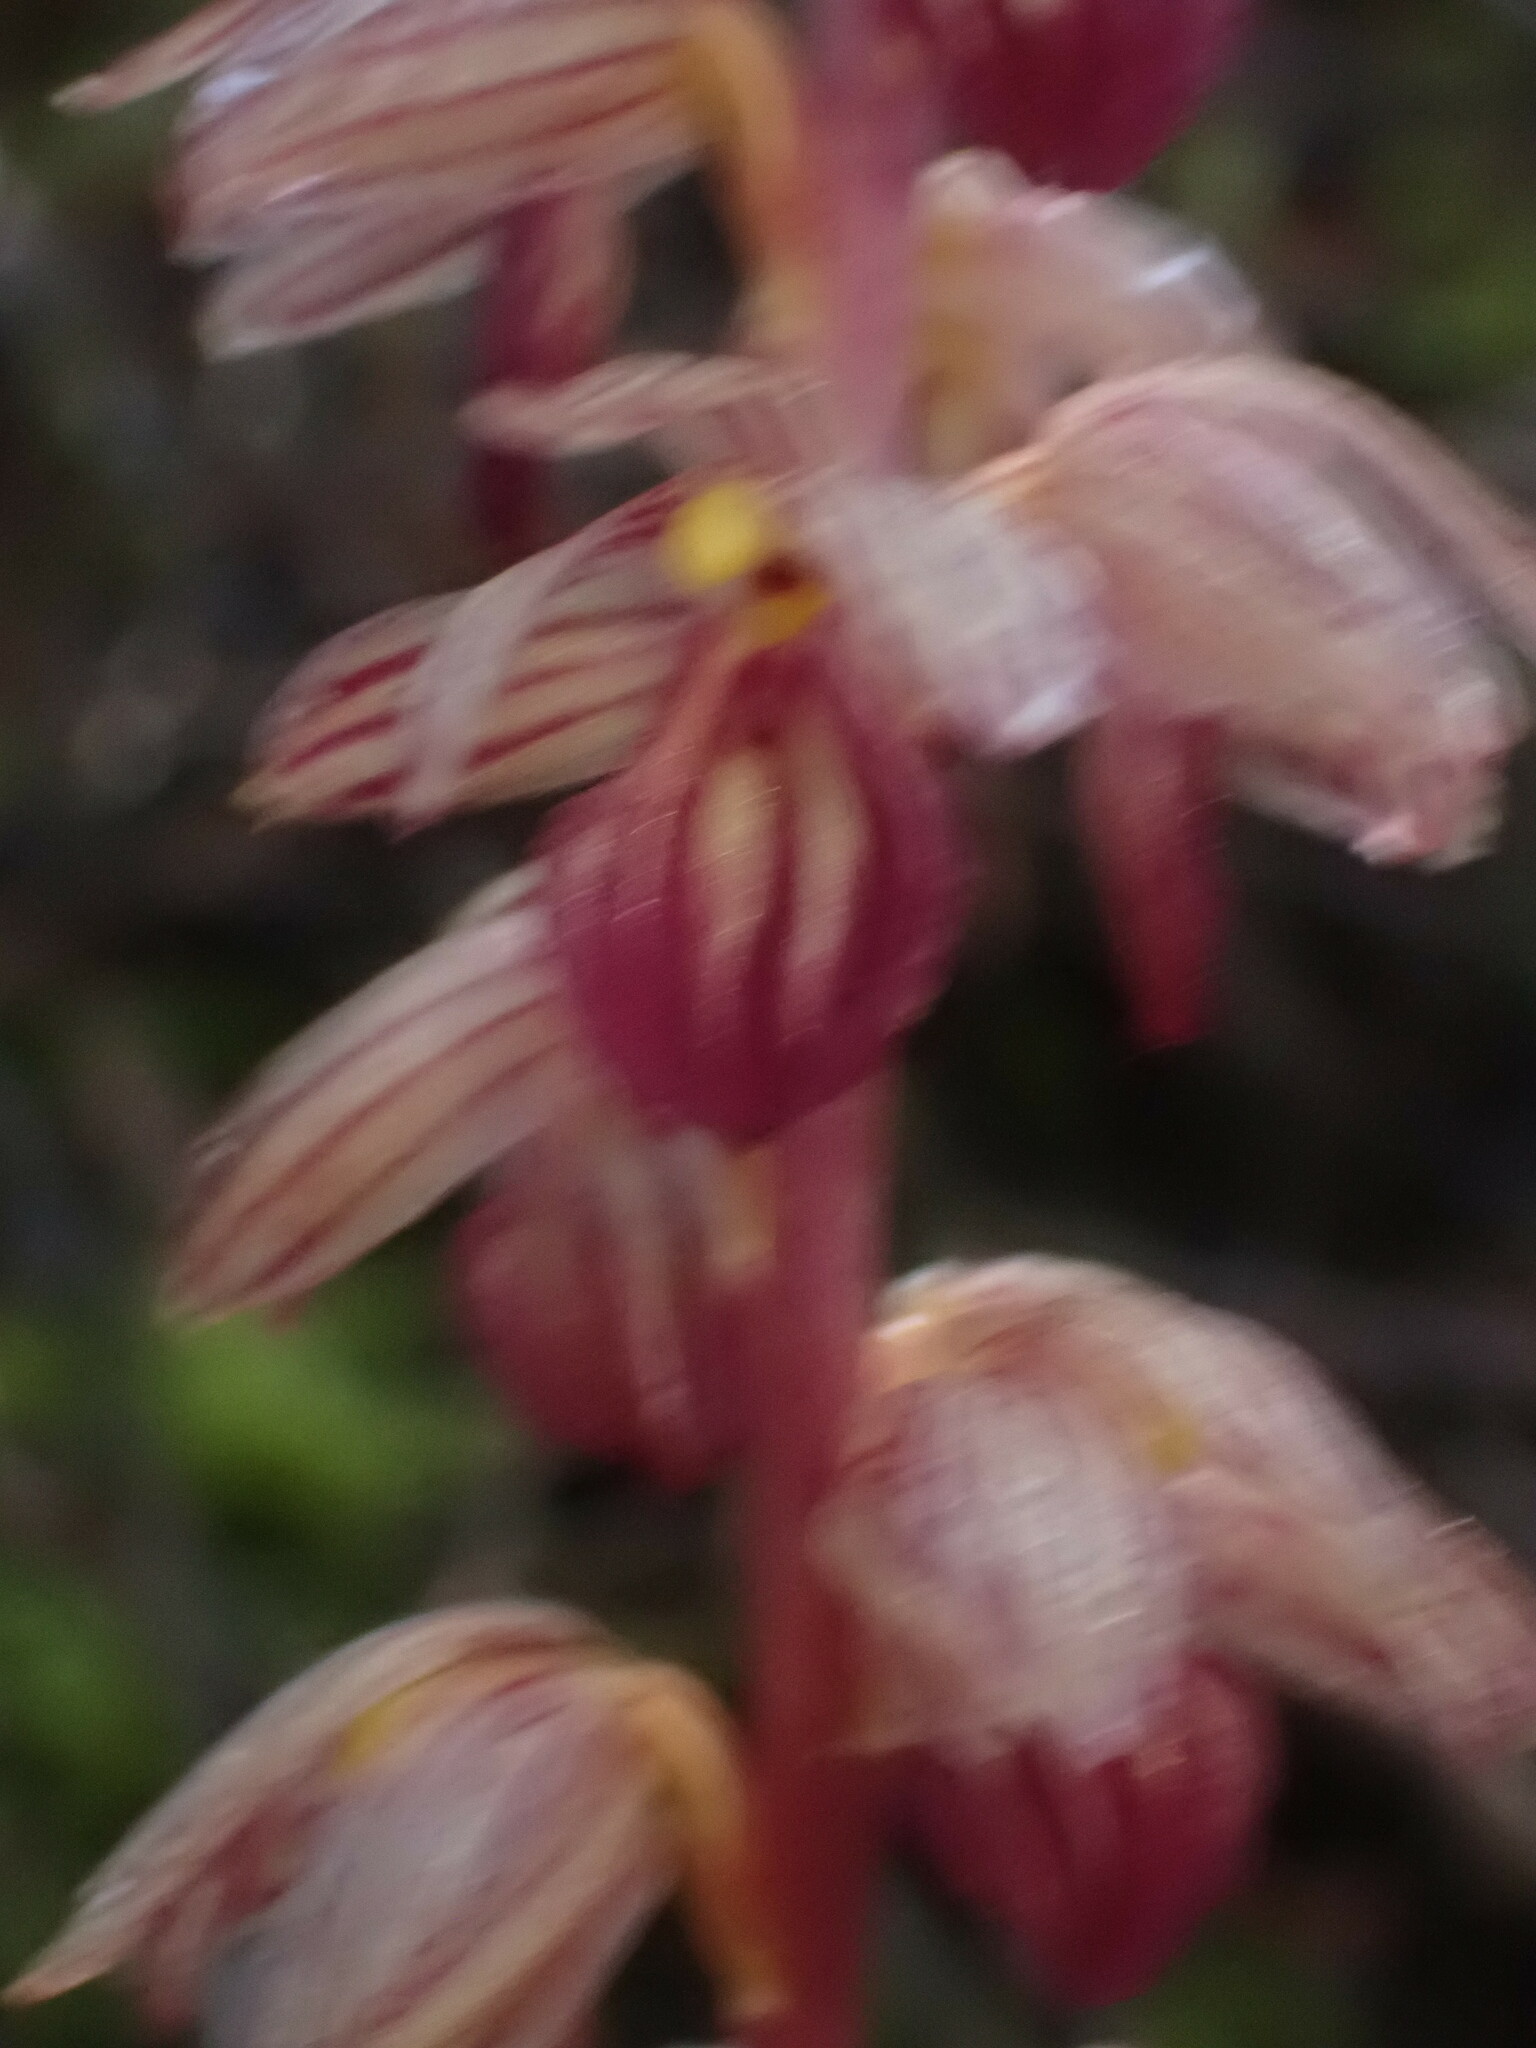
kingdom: Plantae
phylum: Tracheophyta
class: Liliopsida
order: Asparagales
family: Orchidaceae
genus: Corallorhiza
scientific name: Corallorhiza striata
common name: Hooded coralroot
